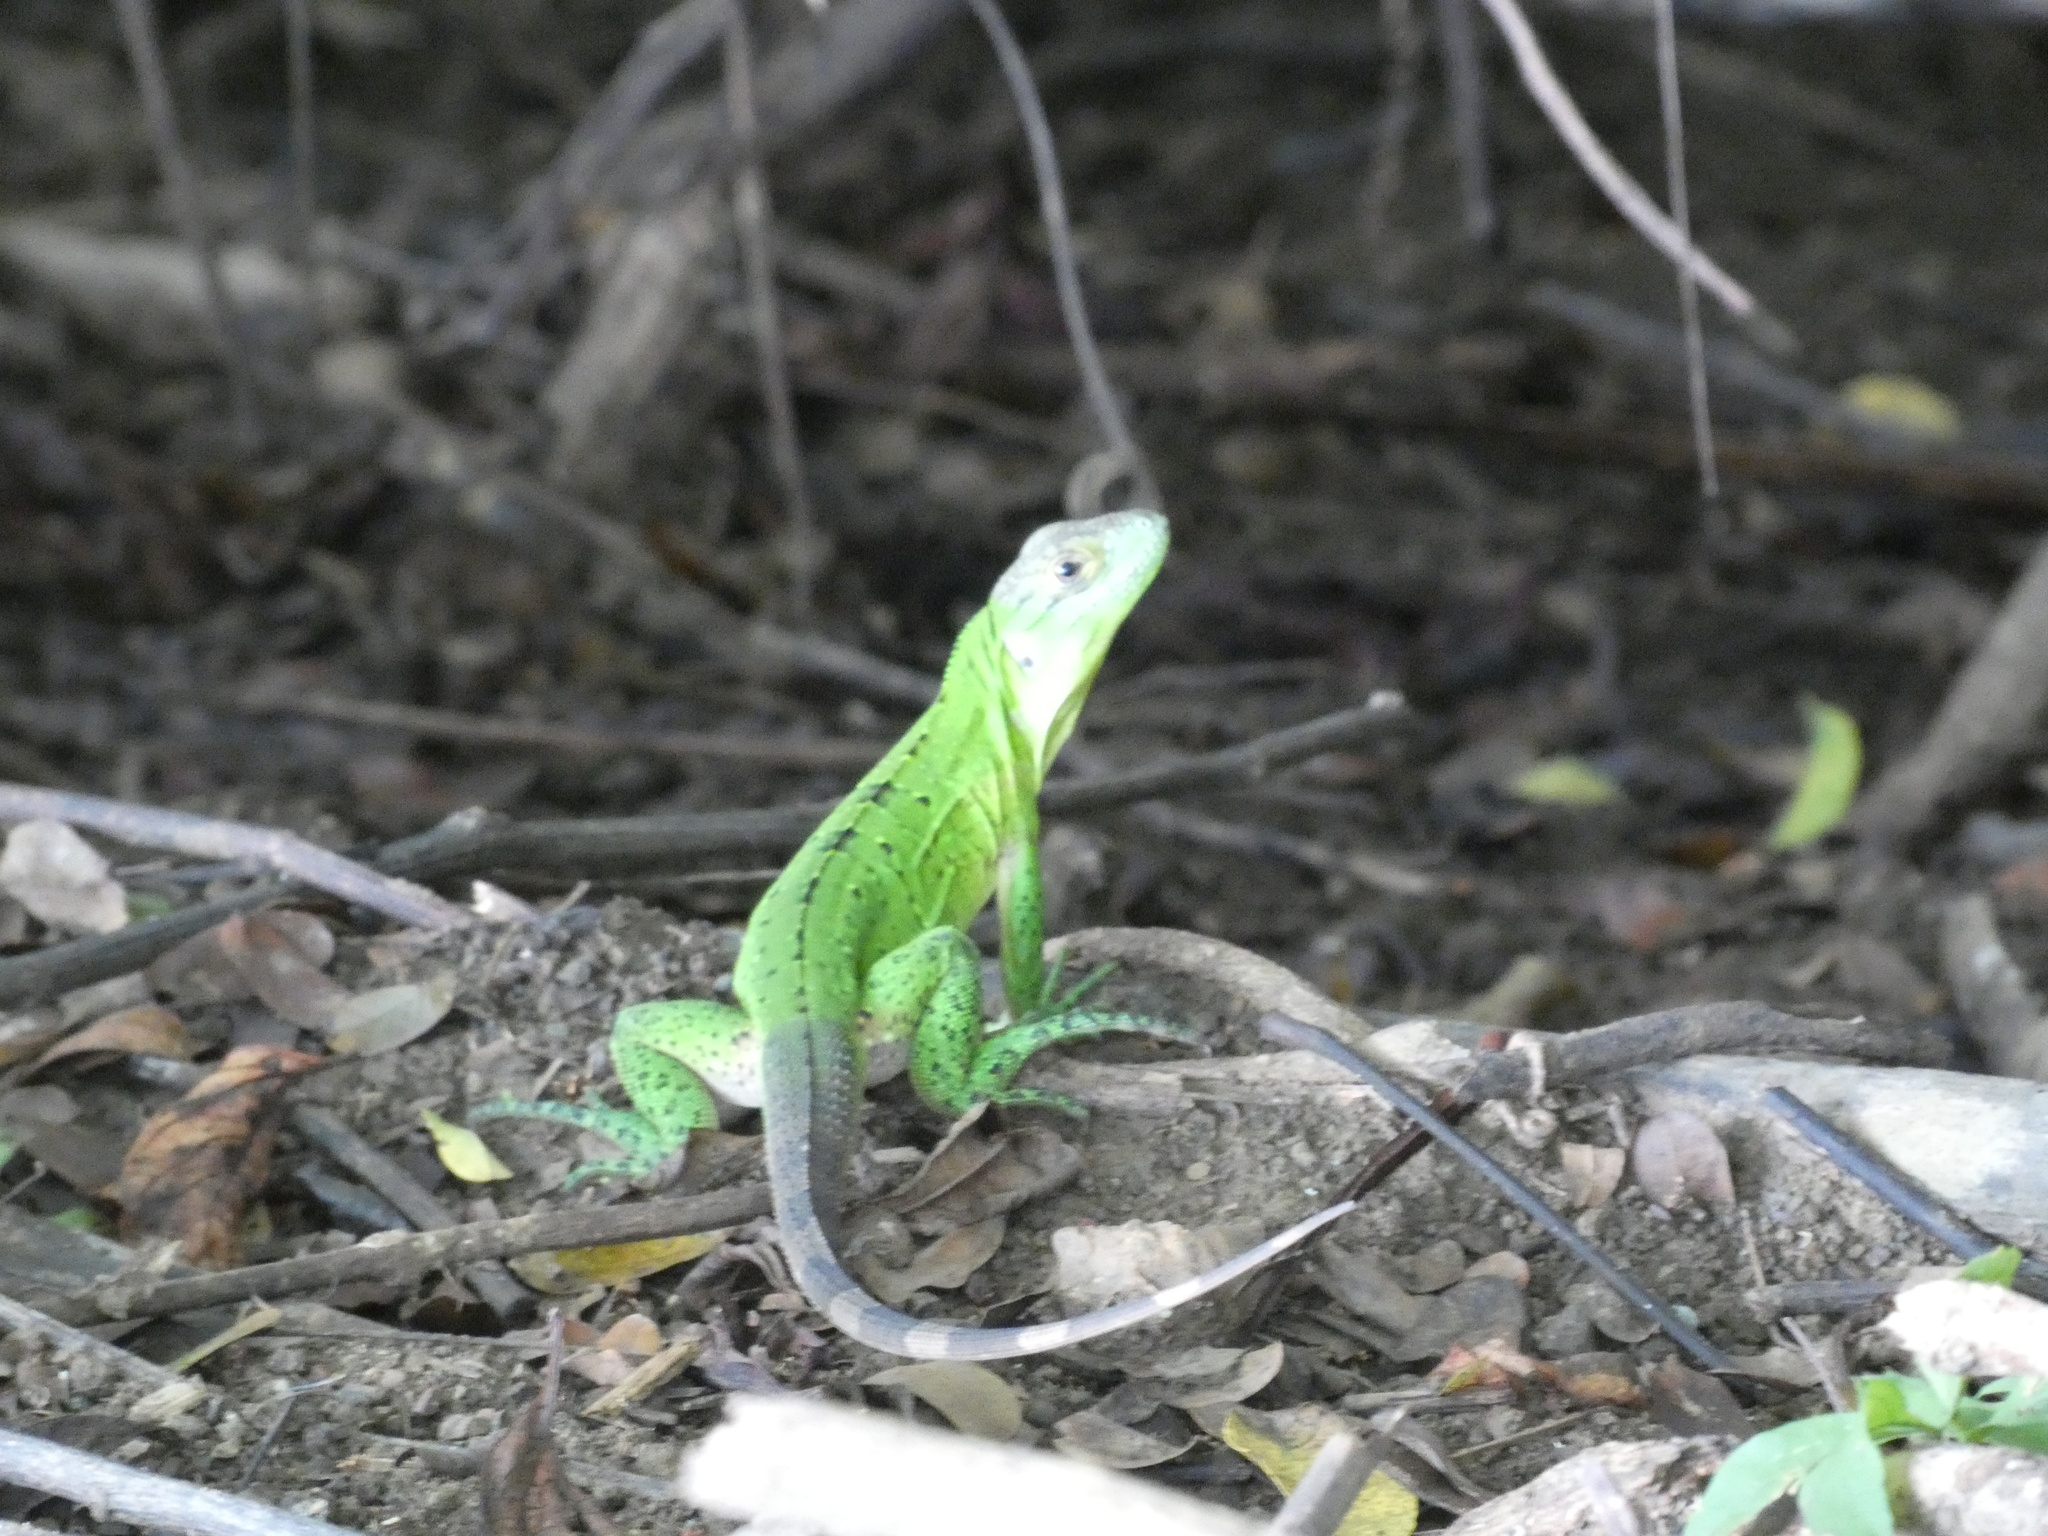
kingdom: Animalia
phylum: Chordata
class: Squamata
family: Iguanidae
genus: Ctenosaura
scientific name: Ctenosaura similis
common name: Black spiny-tailed iguana
